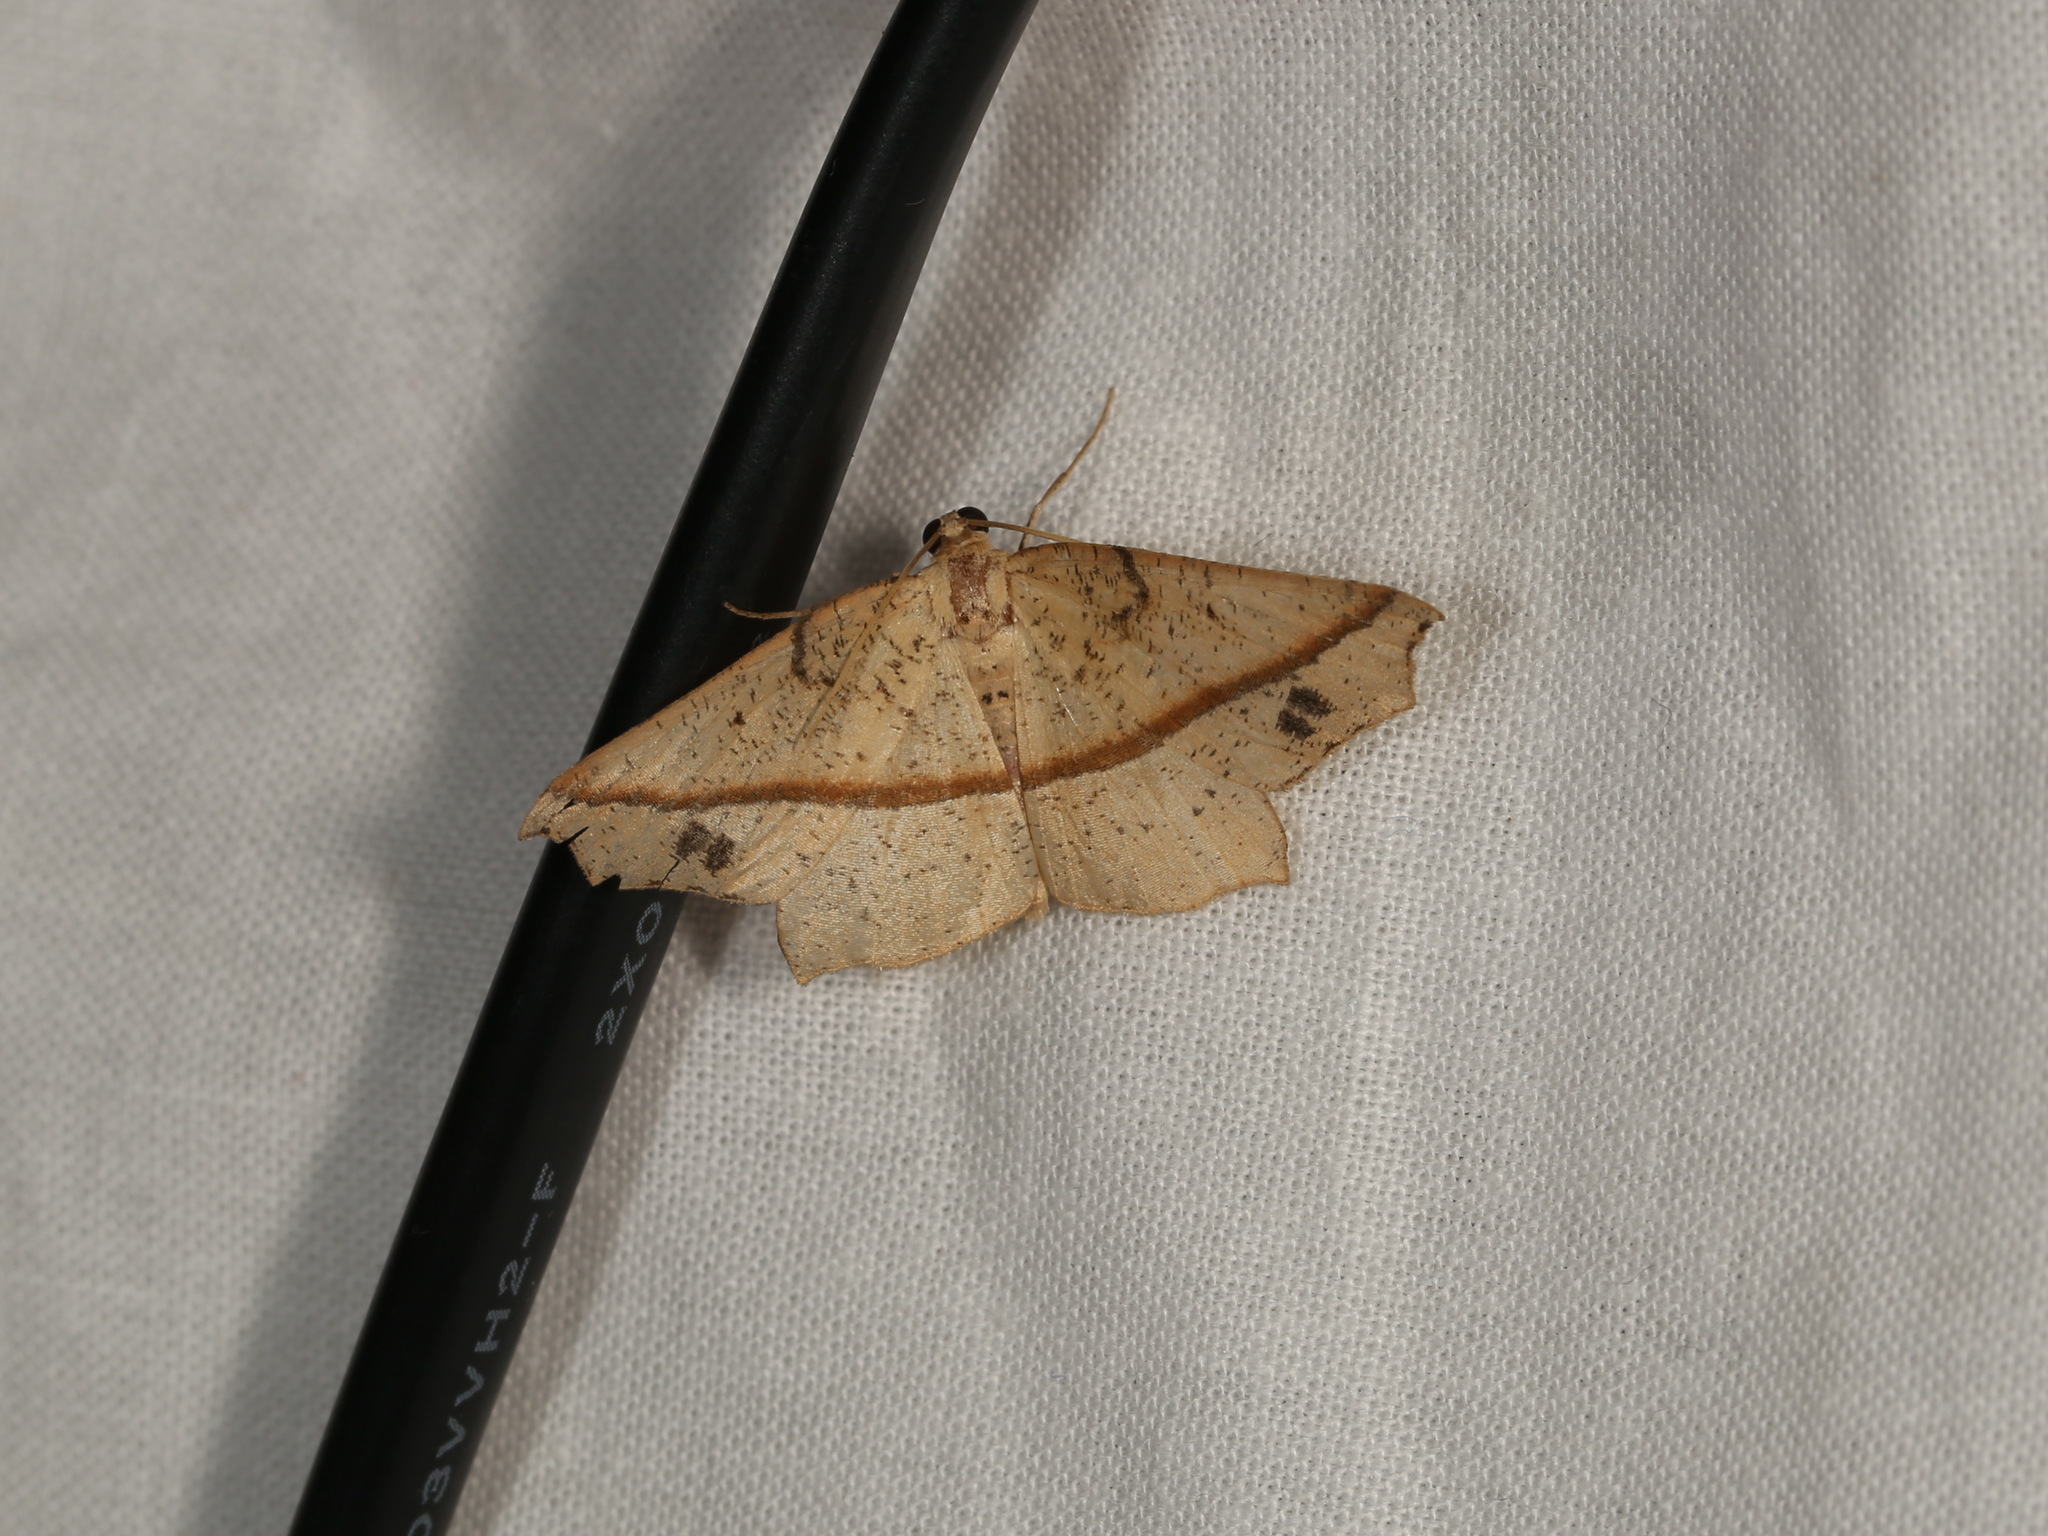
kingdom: Animalia
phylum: Arthropoda
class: Insecta
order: Lepidoptera
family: Geometridae
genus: Picrophylla
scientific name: Picrophylla hyleora
